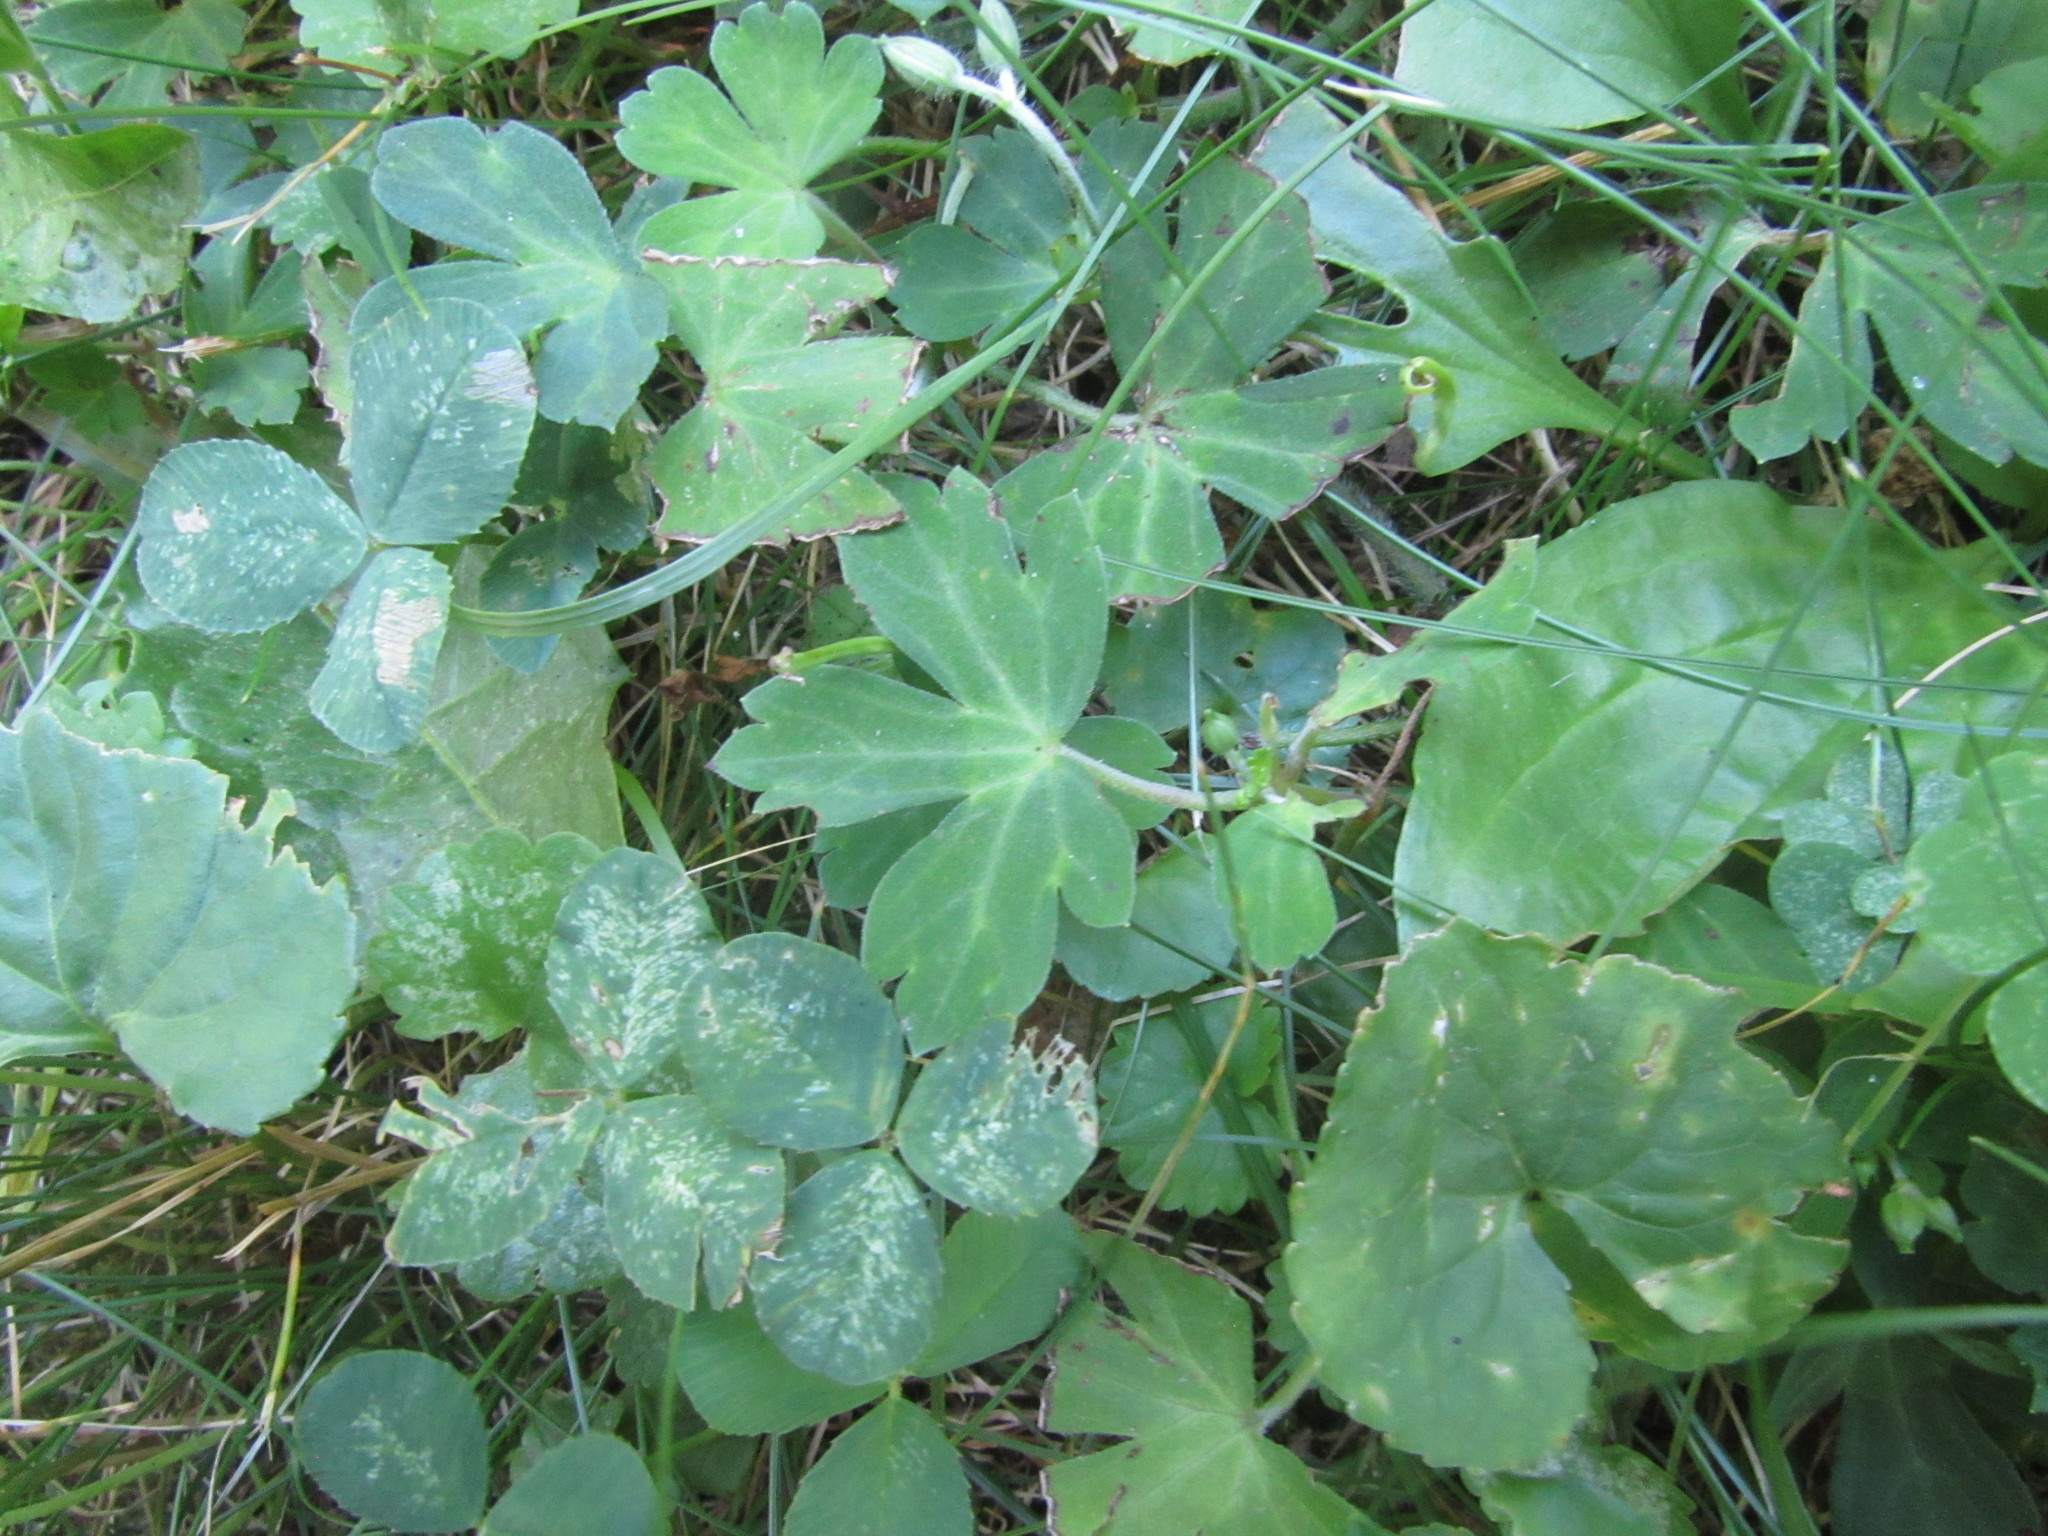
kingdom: Plantae
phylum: Tracheophyta
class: Magnoliopsida
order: Geraniales
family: Geraniaceae
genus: Geranium
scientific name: Geranium thunbergii
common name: Dewdrop crane's-bill
